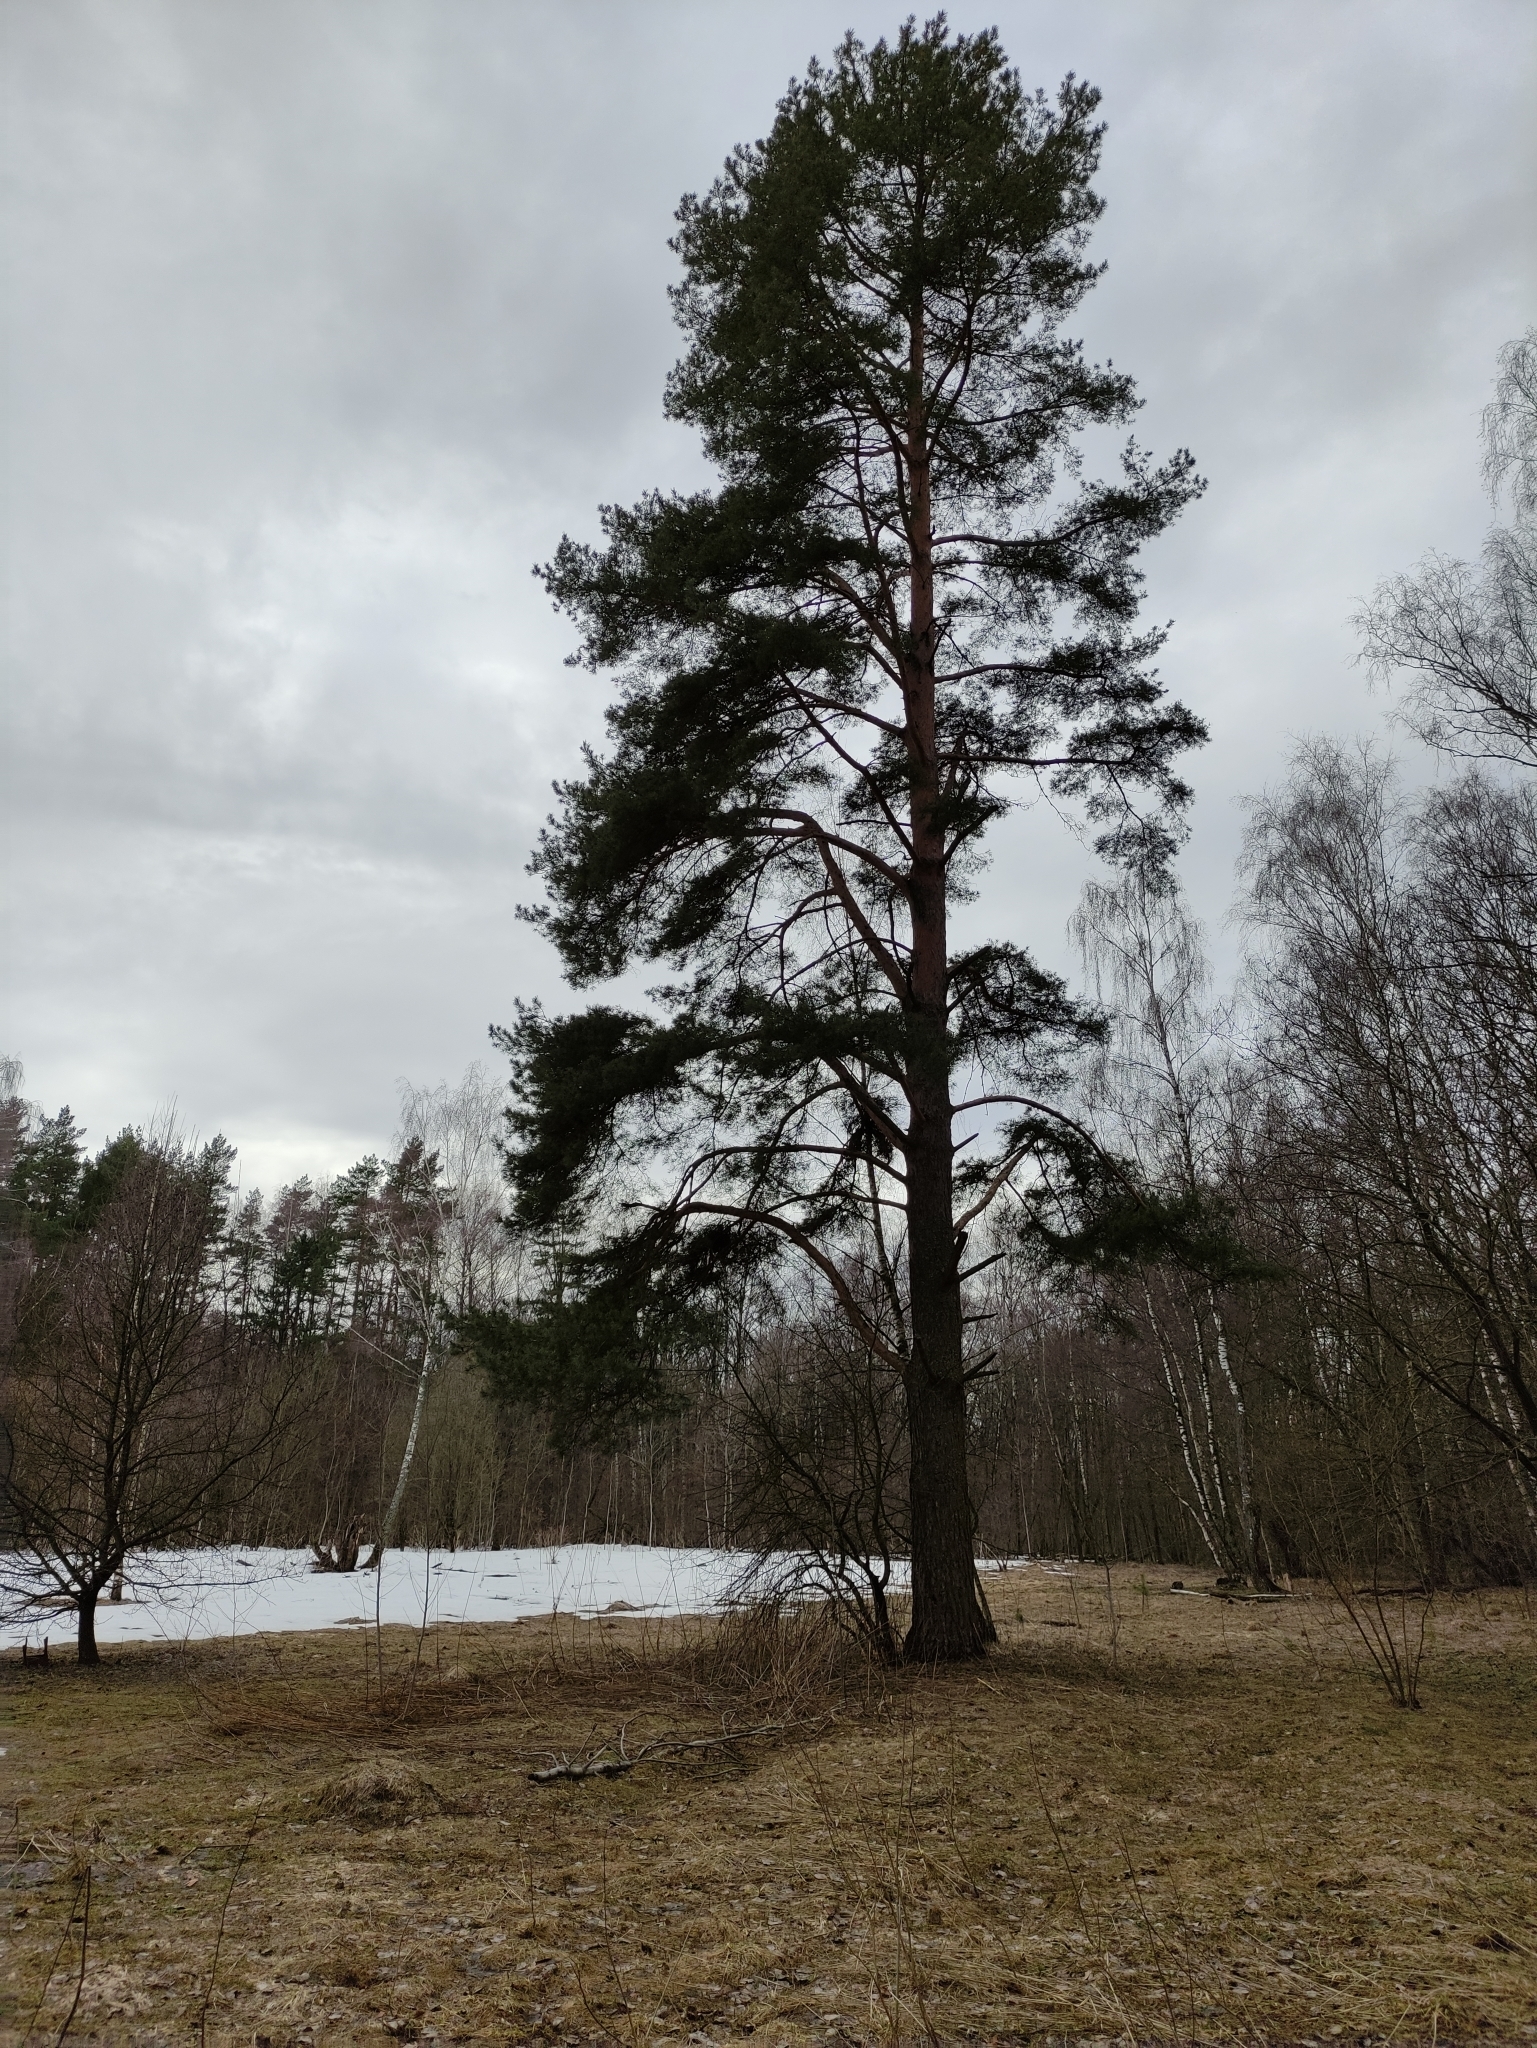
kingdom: Plantae
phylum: Tracheophyta
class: Pinopsida
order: Pinales
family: Pinaceae
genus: Pinus
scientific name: Pinus sylvestris
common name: Scots pine
